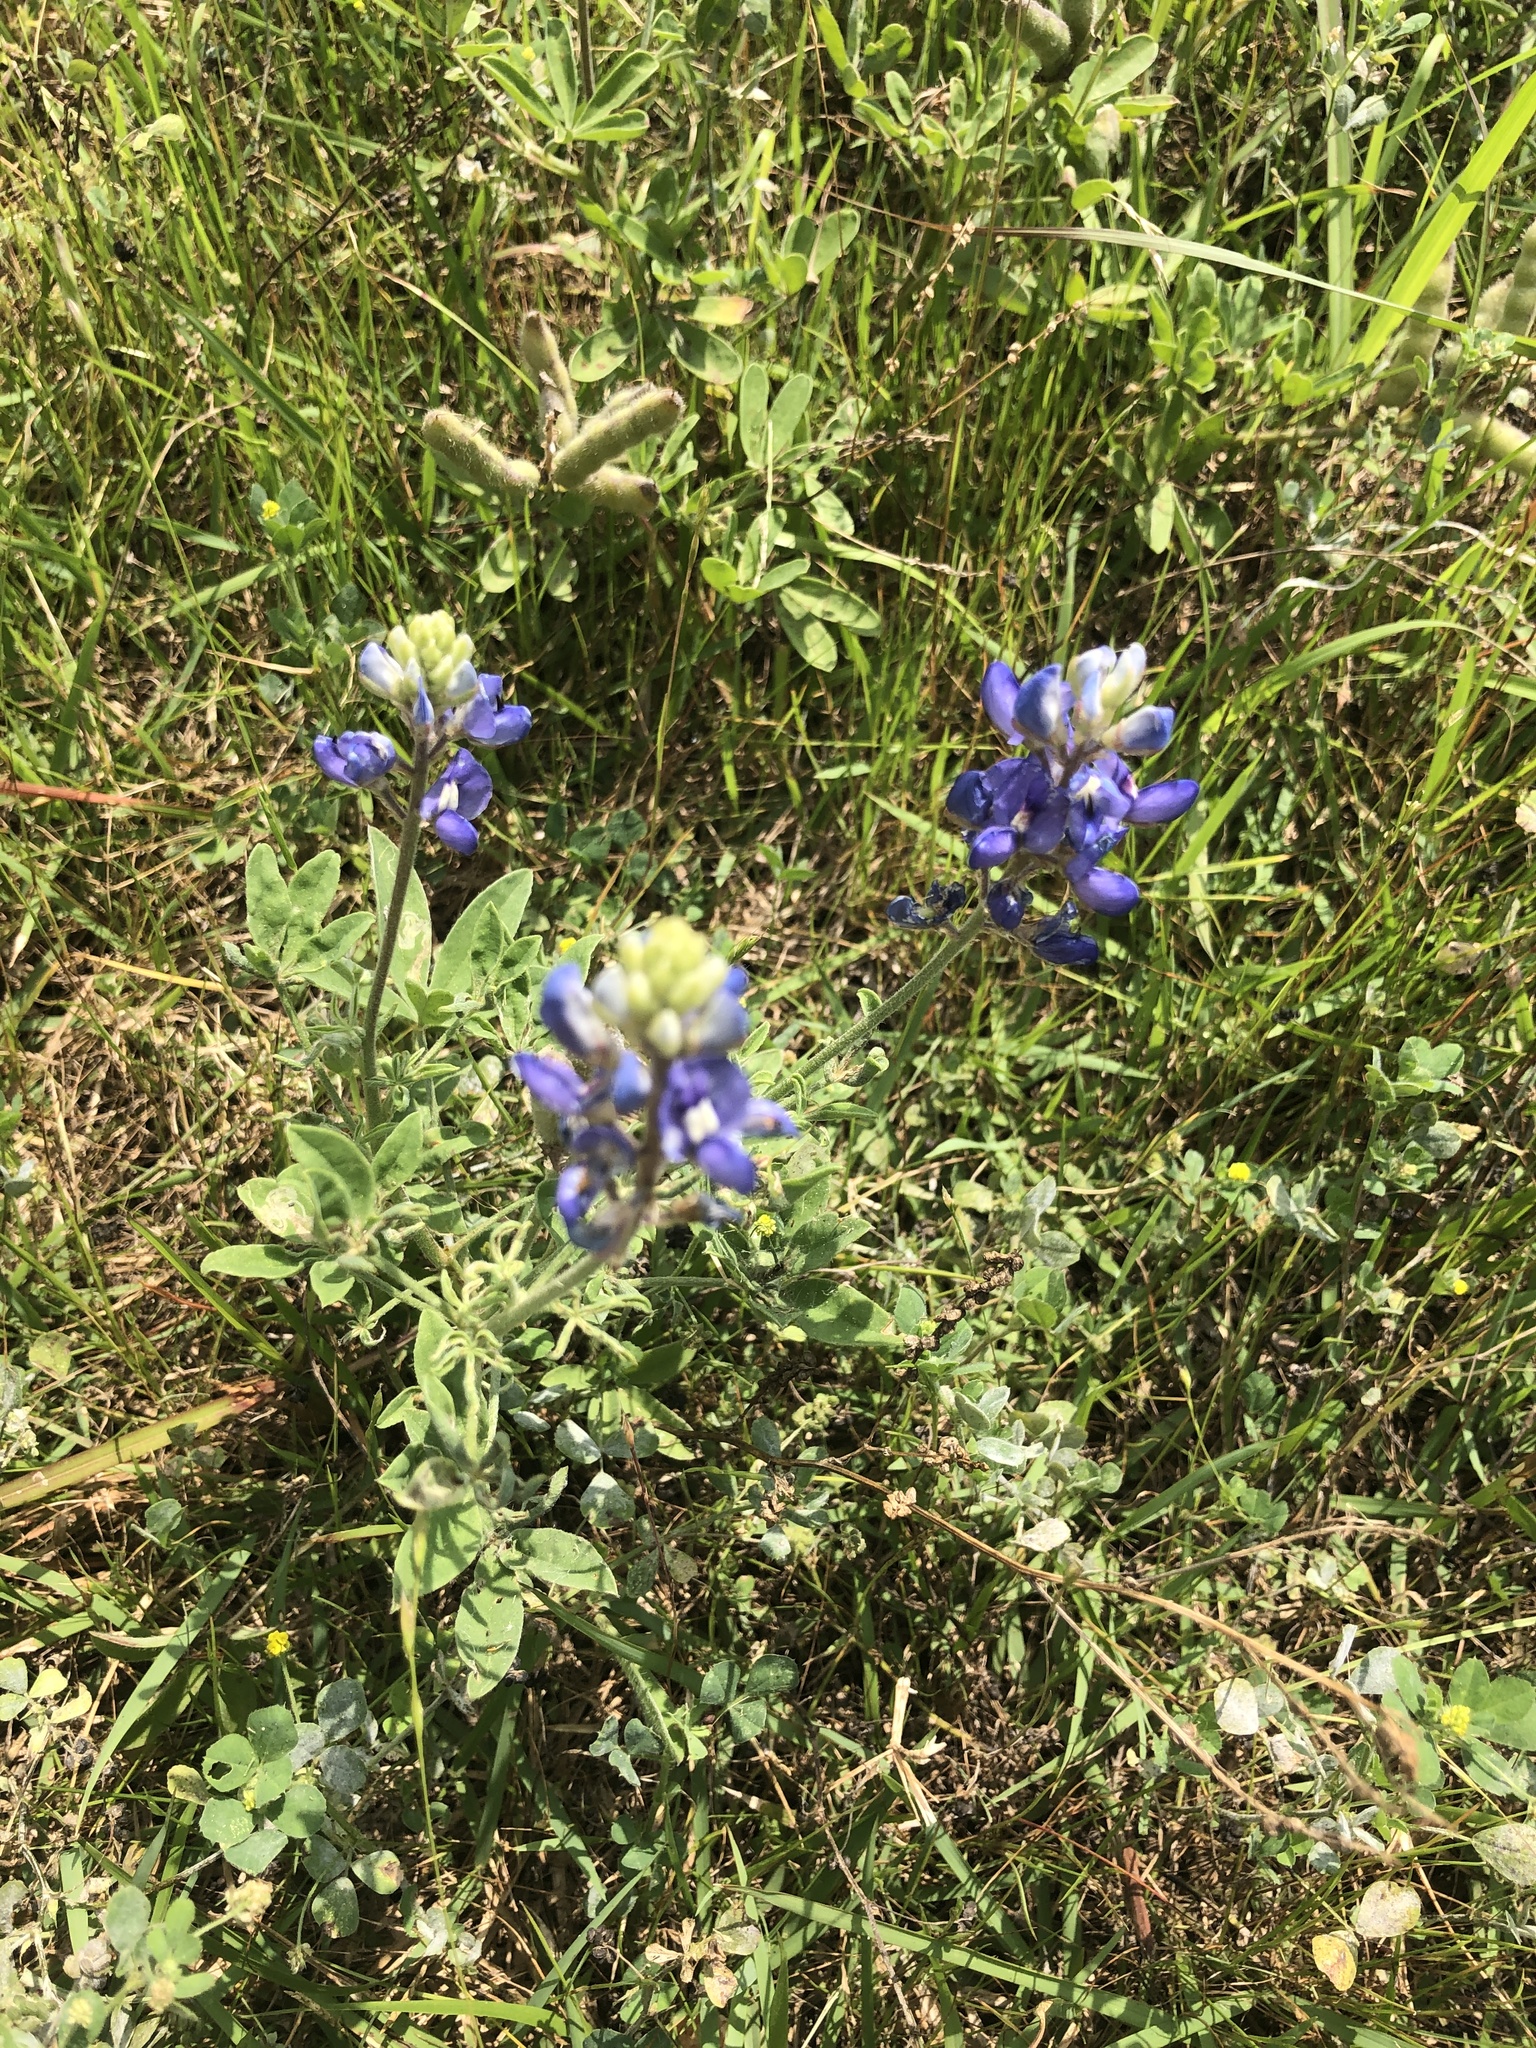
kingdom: Plantae
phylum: Tracheophyta
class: Magnoliopsida
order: Fabales
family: Fabaceae
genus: Lupinus
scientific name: Lupinus texensis
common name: Texas bluebonnet
